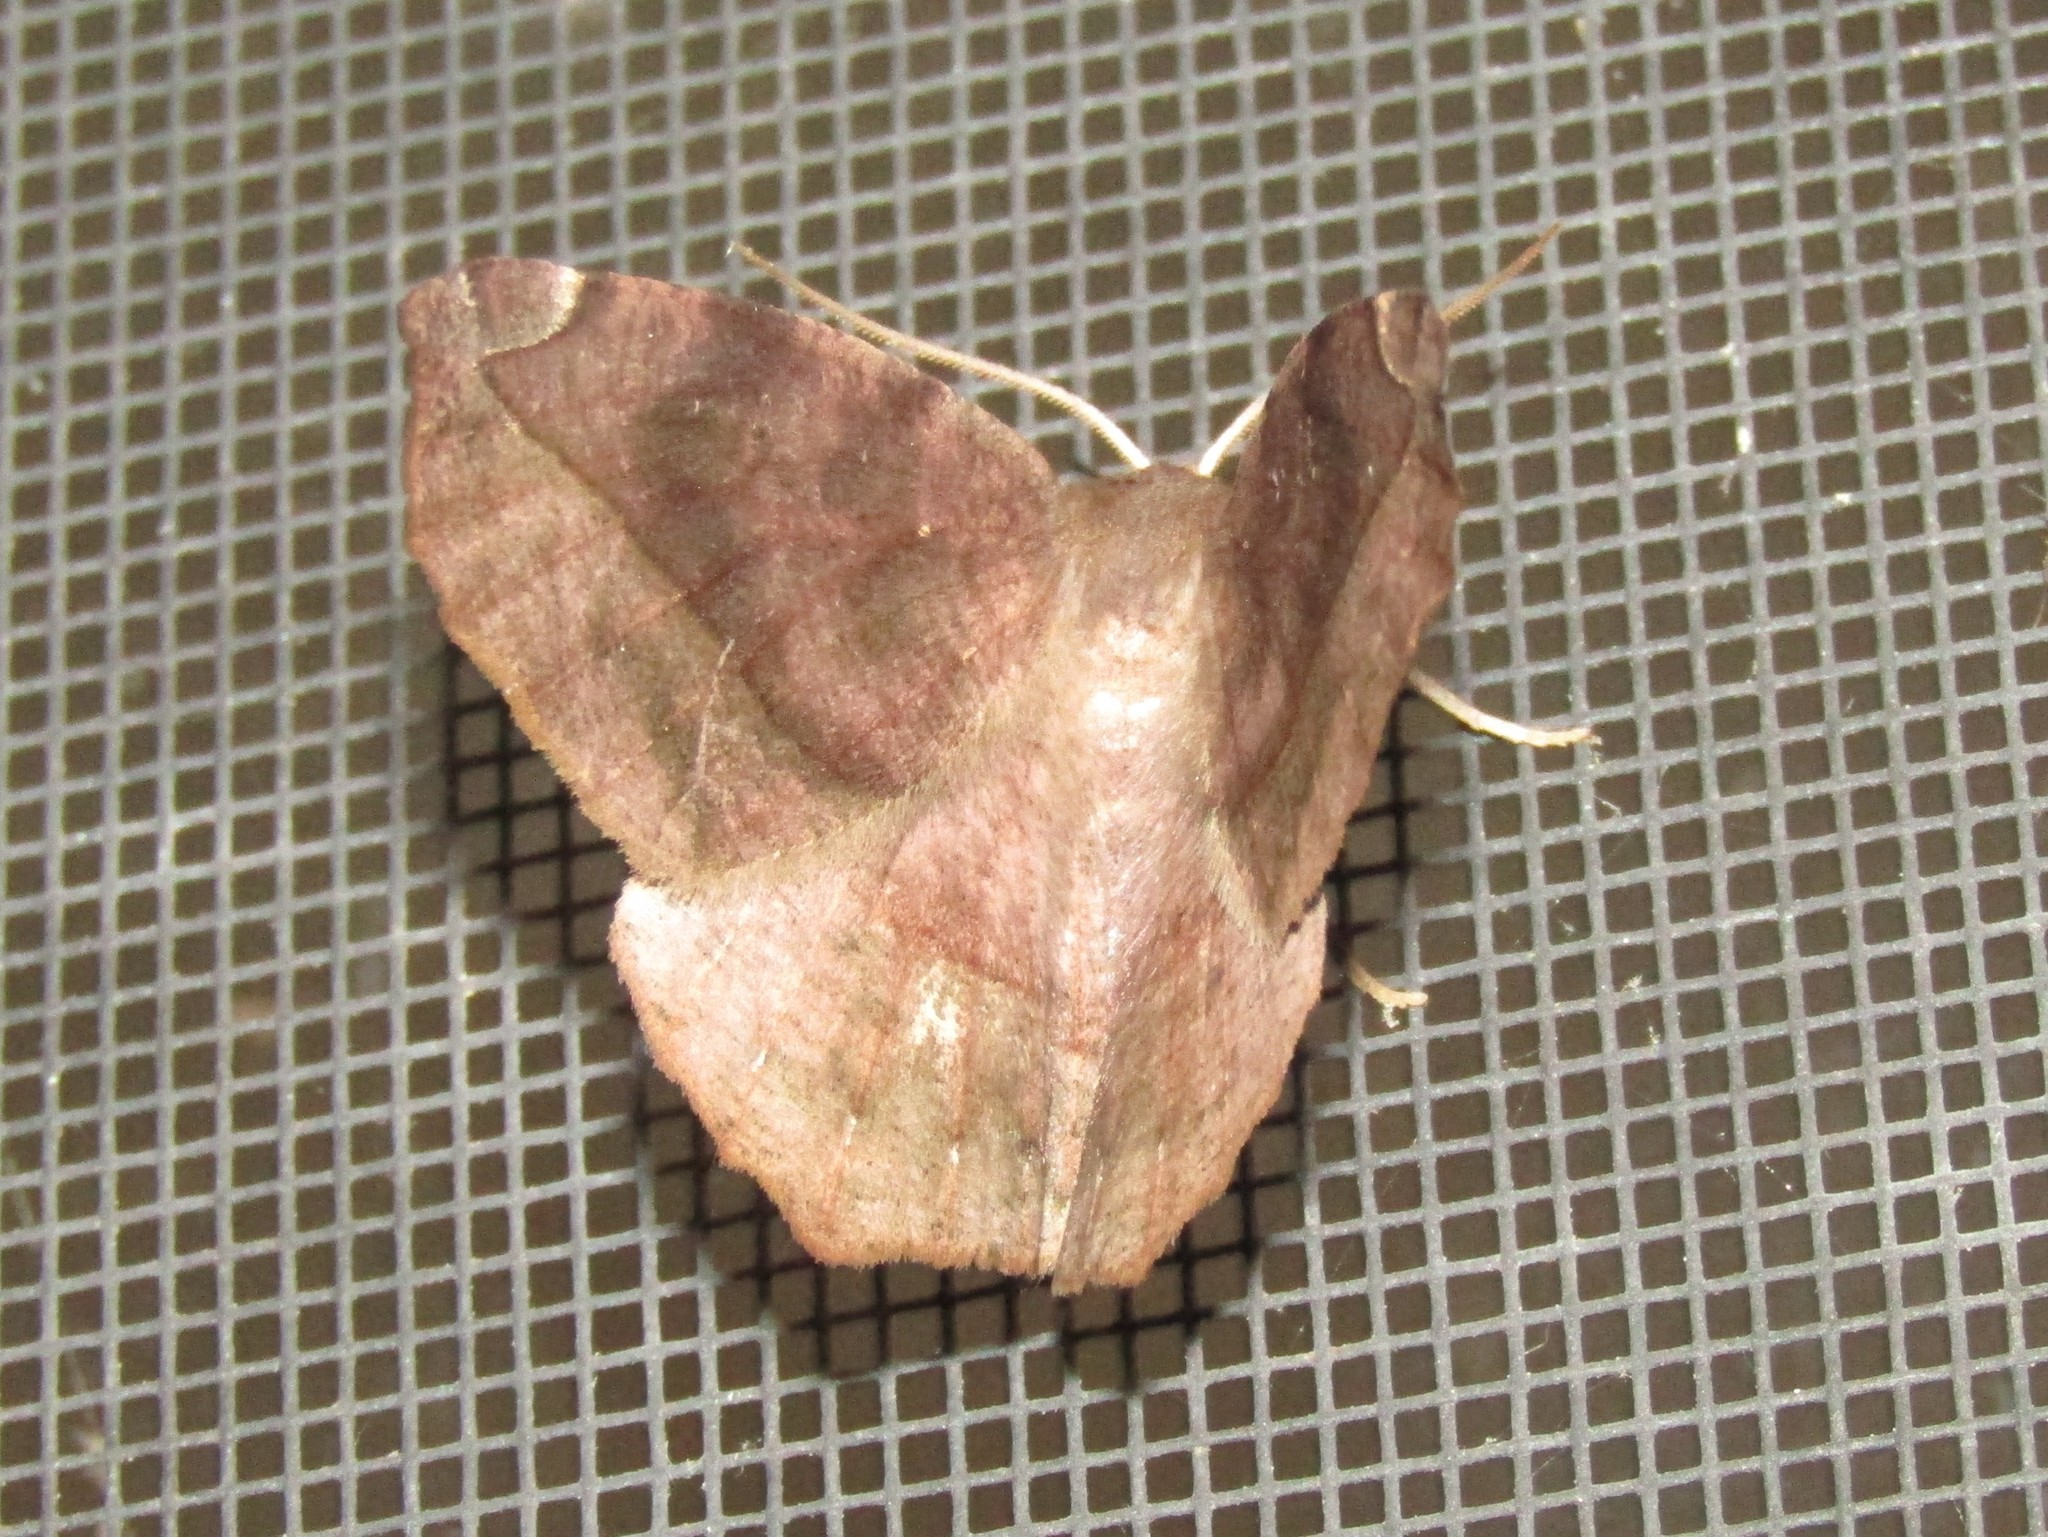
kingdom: Animalia
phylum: Arthropoda
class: Insecta
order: Lepidoptera
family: Geometridae
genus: Eutrapela
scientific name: Eutrapela clemataria
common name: Curved-toothed geometer
